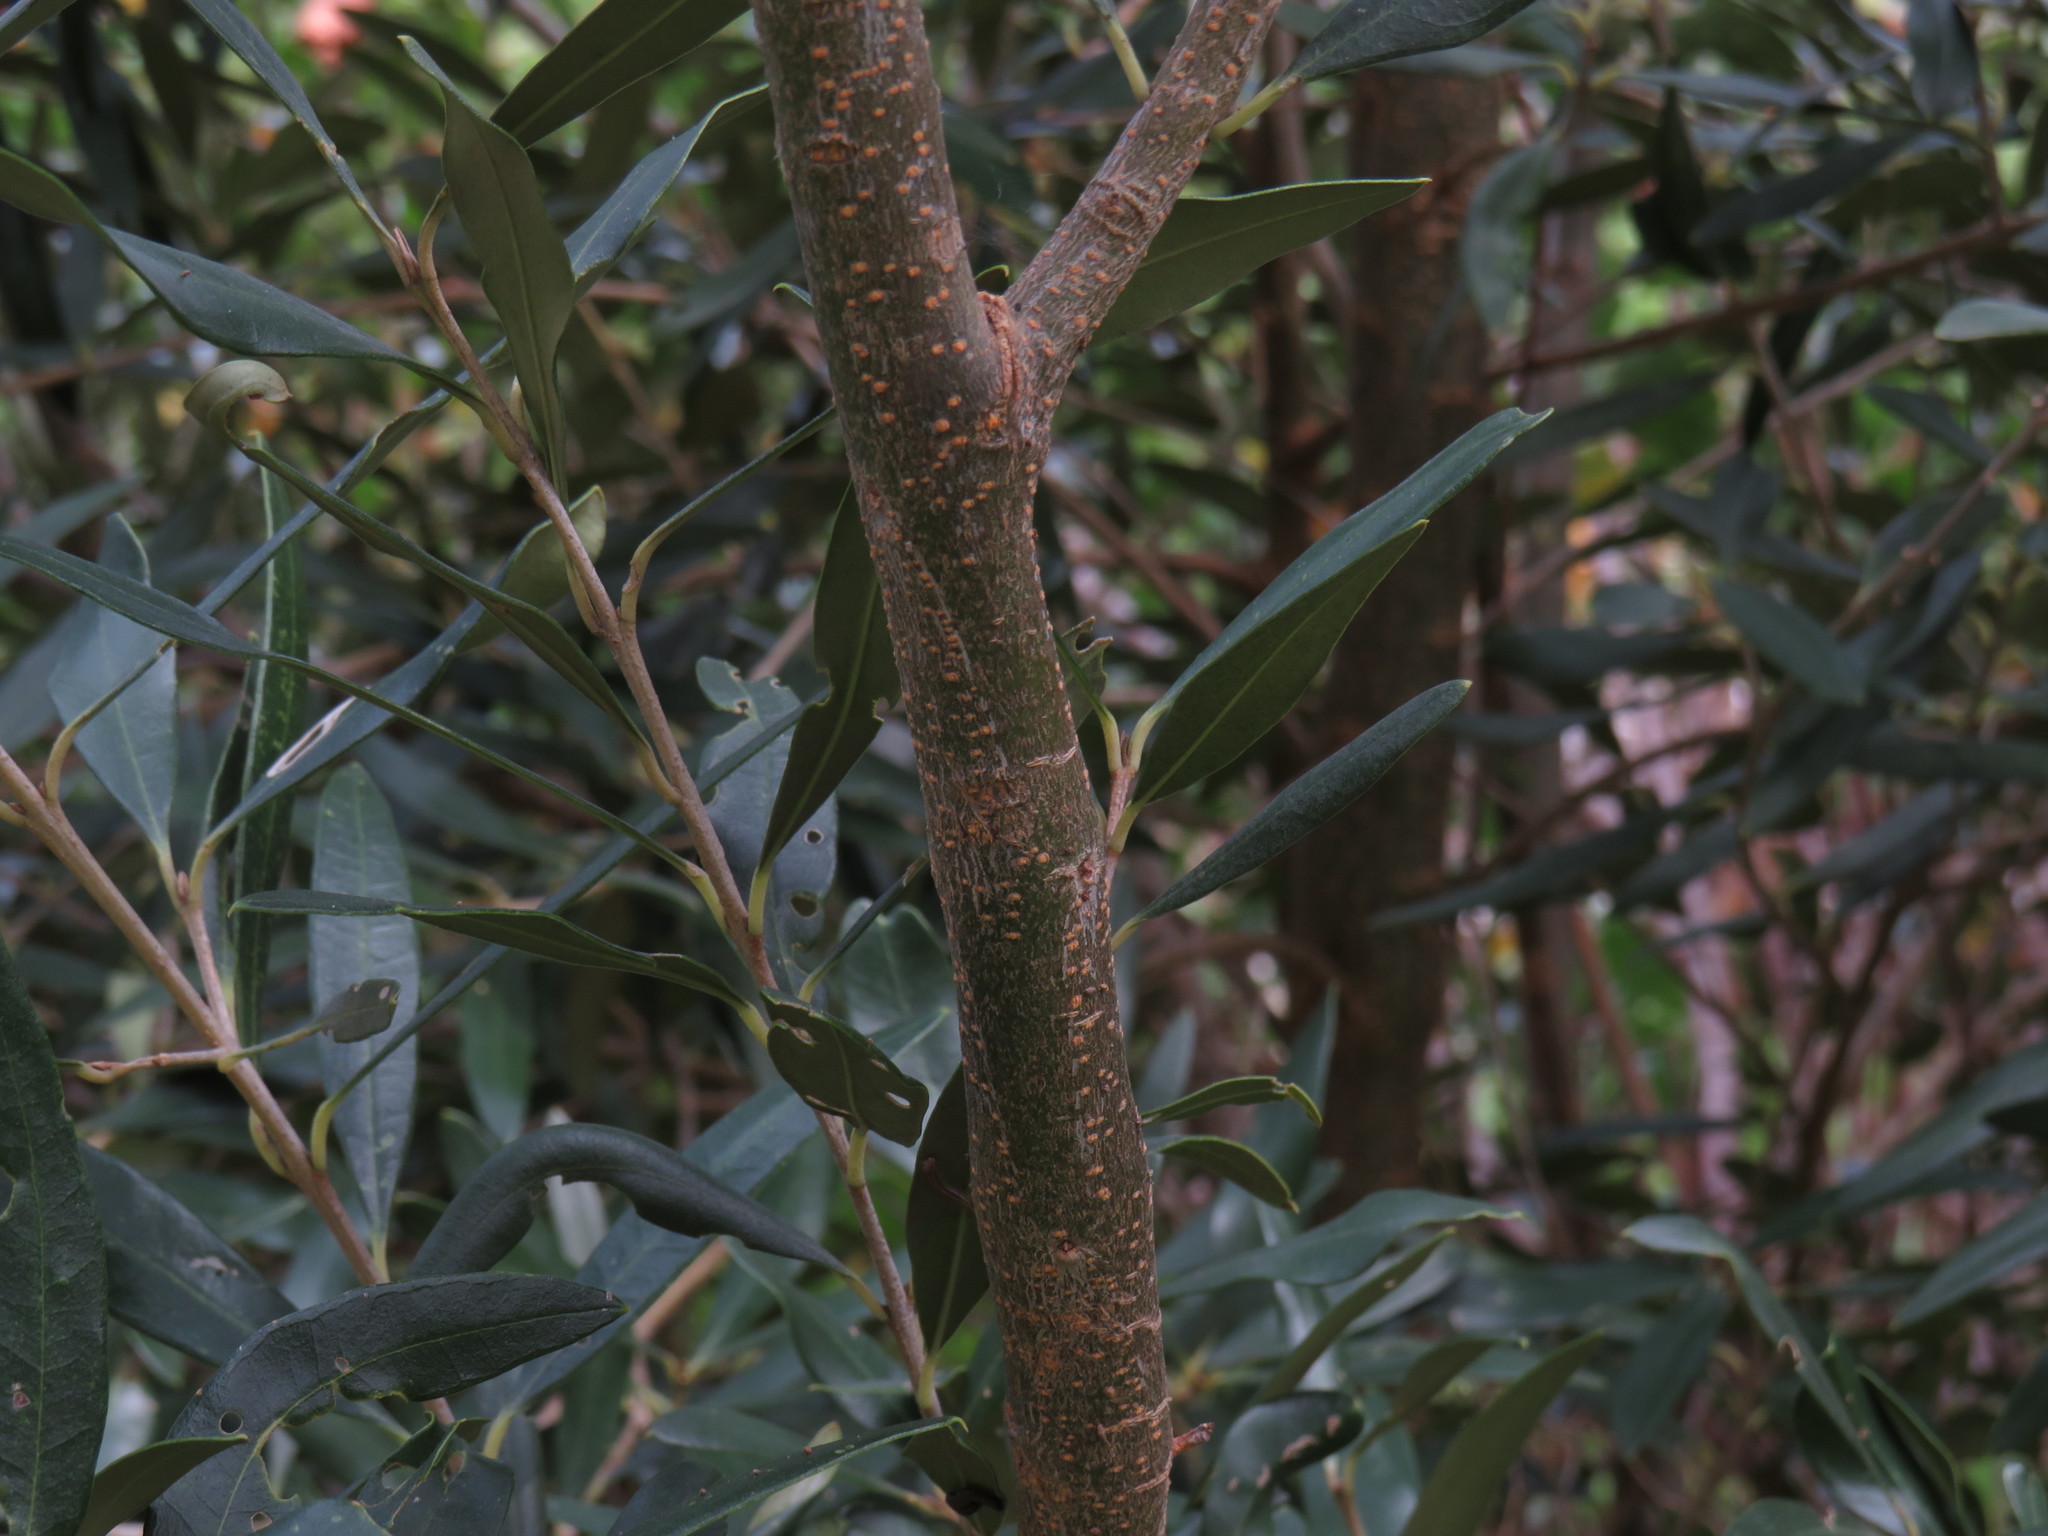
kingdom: Plantae
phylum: Tracheophyta
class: Magnoliopsida
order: Lamiales
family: Oleaceae
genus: Olea
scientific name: Olea europaea
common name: Olive
